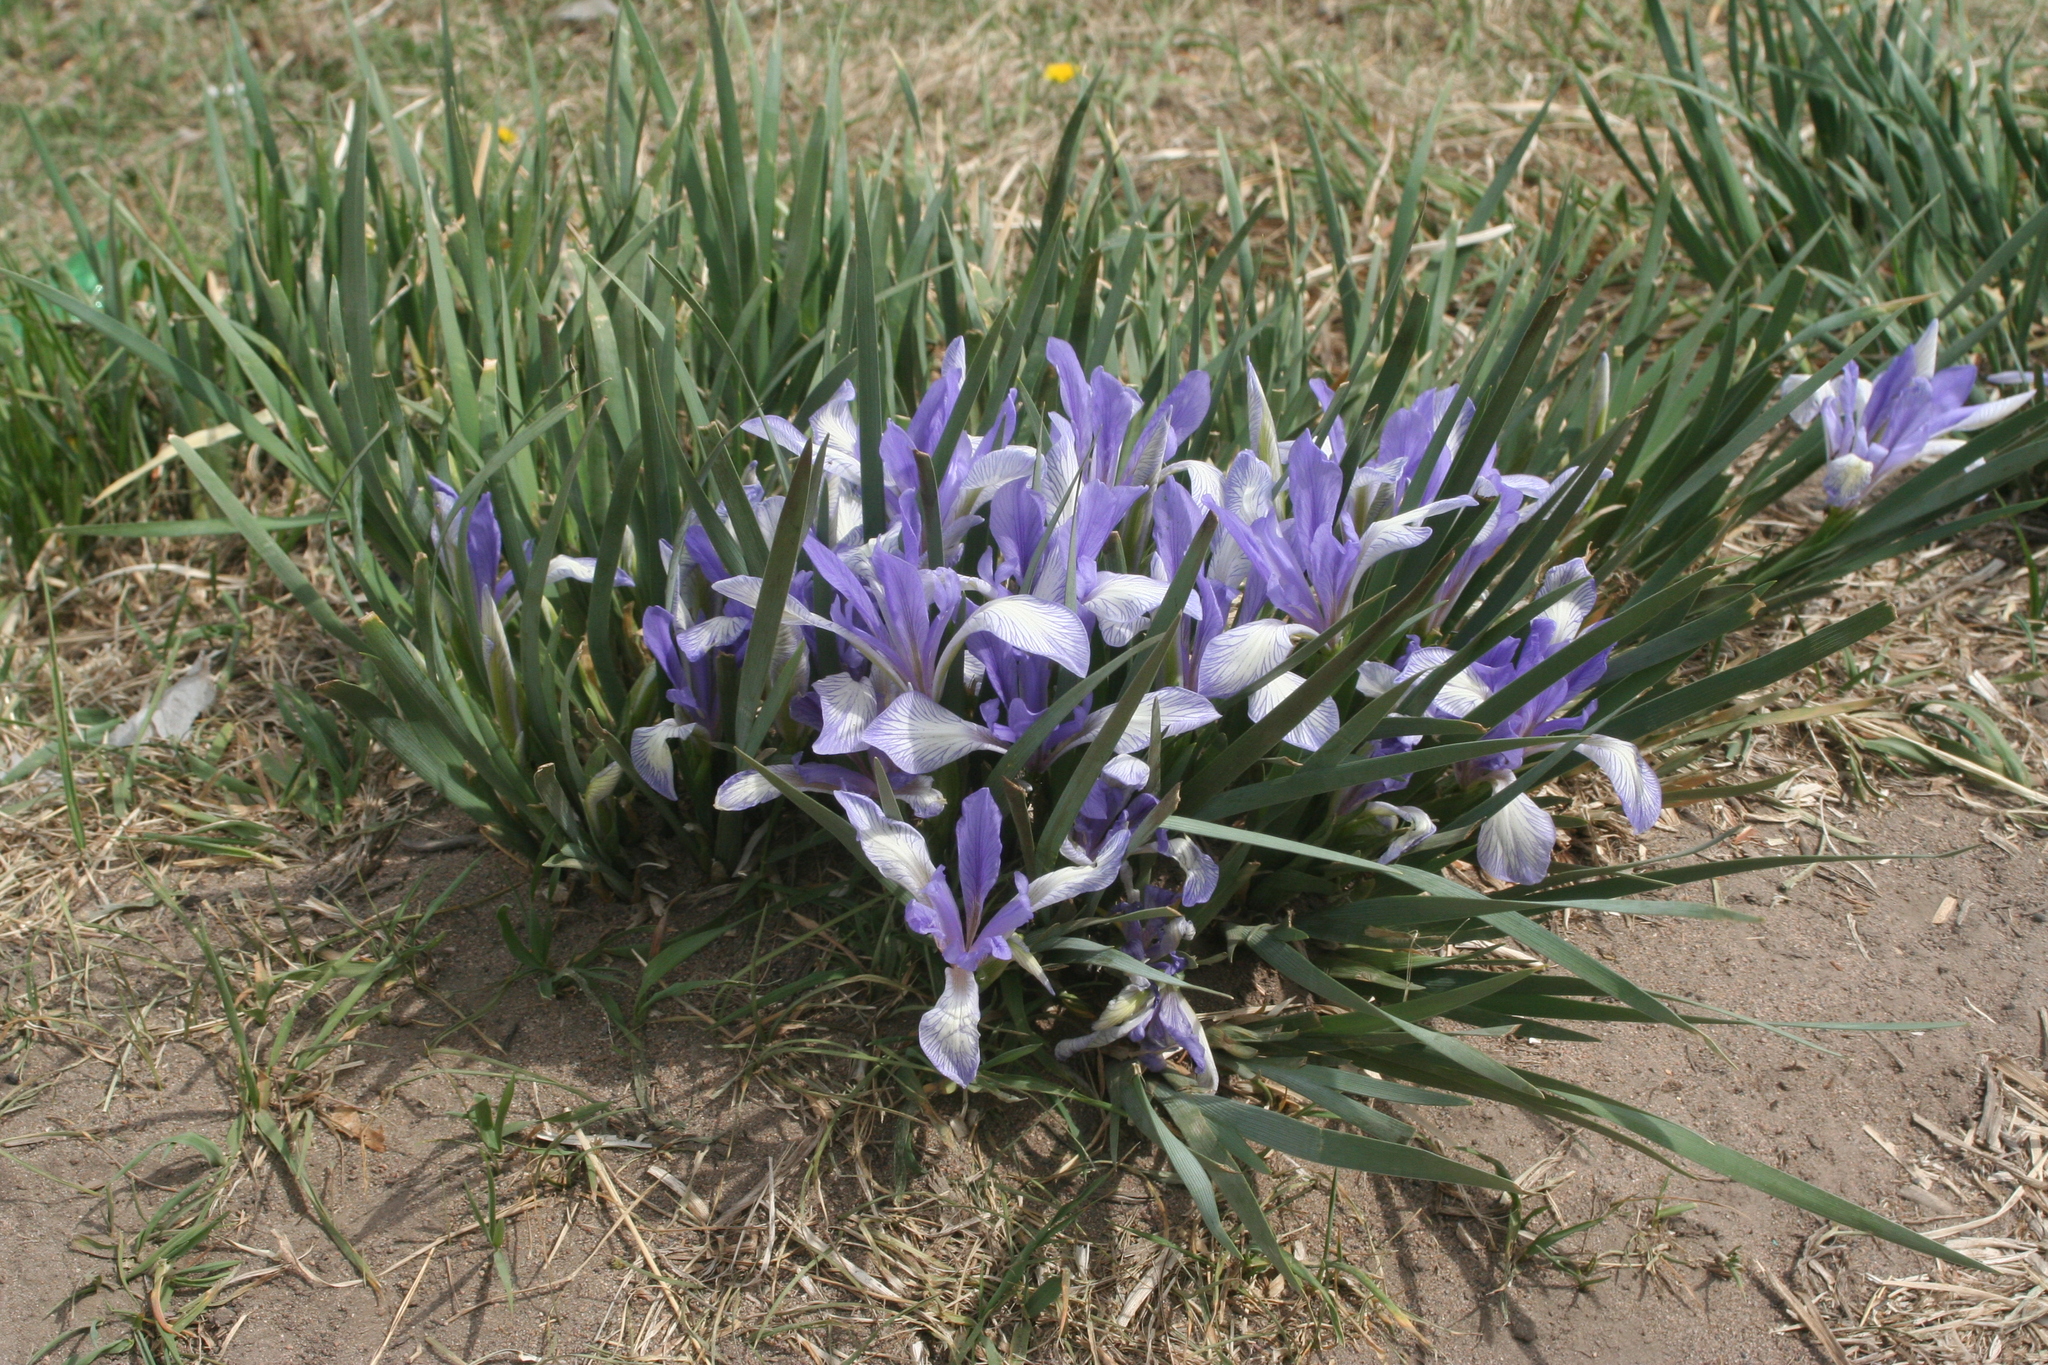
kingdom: Plantae
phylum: Tracheophyta
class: Liliopsida
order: Asparagales
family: Iridaceae
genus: Iris
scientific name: Iris lactea
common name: White-flower chinese iris
